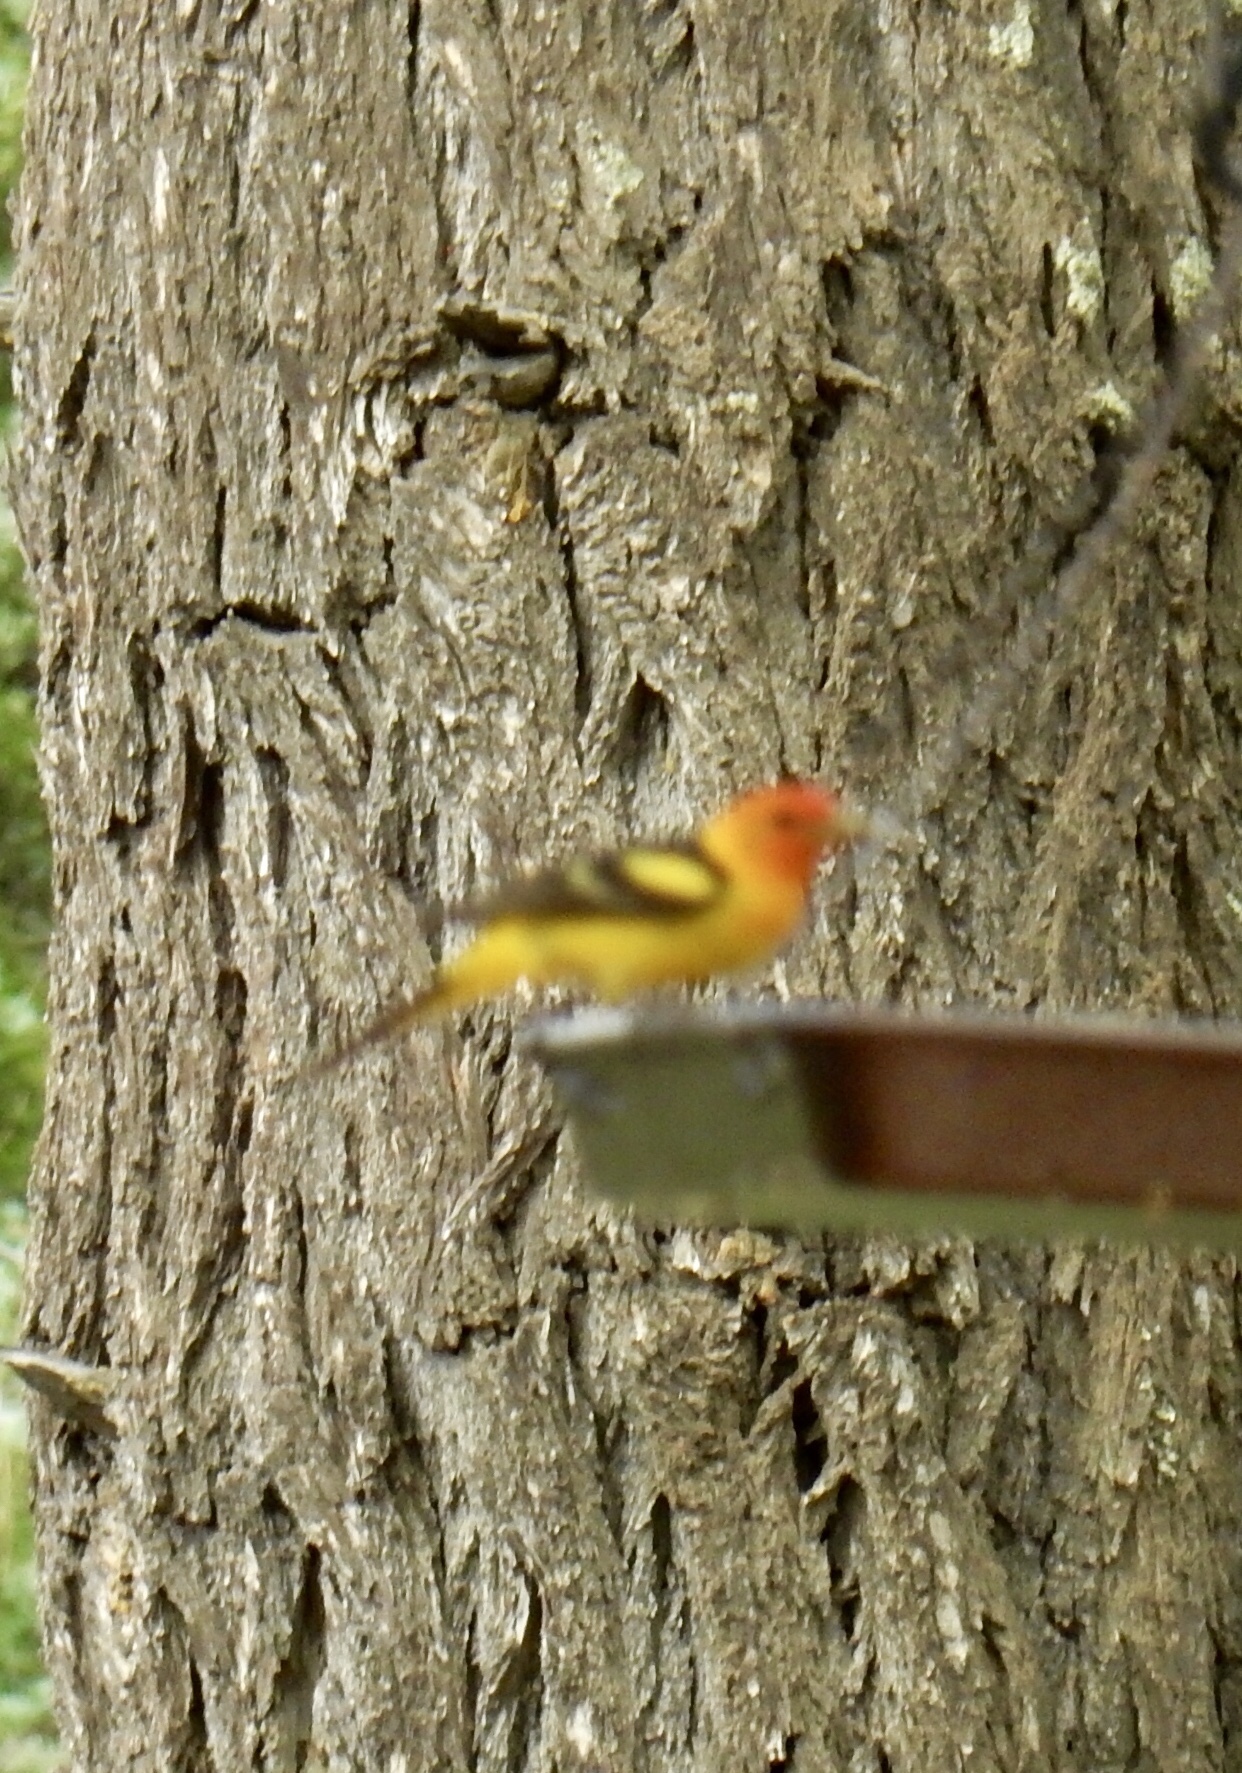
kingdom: Animalia
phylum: Chordata
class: Aves
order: Passeriformes
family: Cardinalidae
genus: Piranga
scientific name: Piranga ludoviciana
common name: Western tanager
